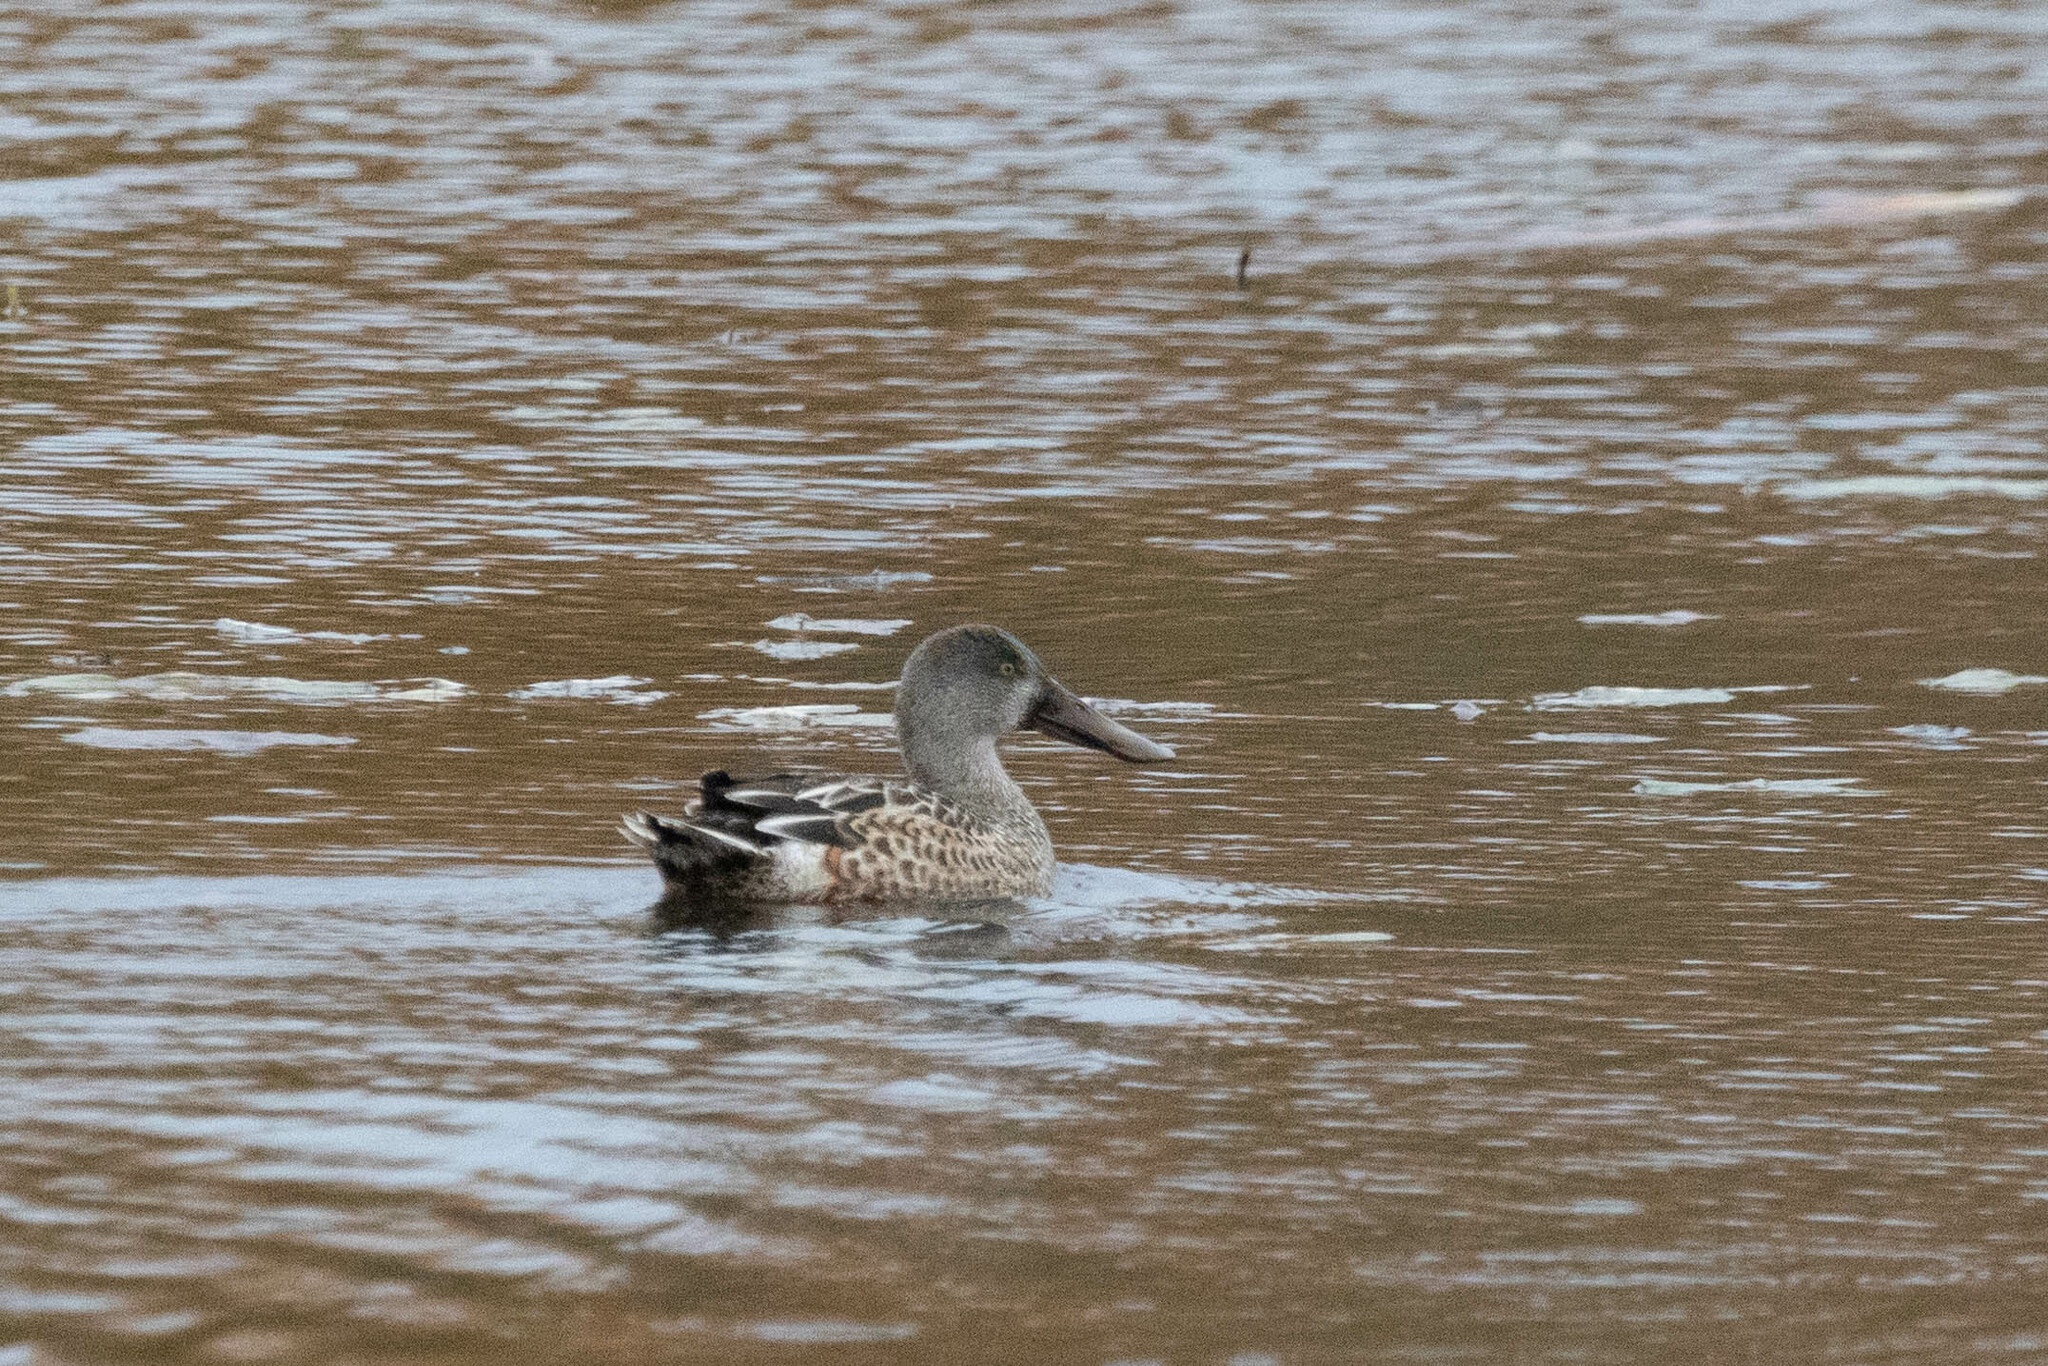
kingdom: Animalia
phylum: Chordata
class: Aves
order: Anseriformes
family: Anatidae
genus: Spatula
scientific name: Spatula clypeata
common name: Northern shoveler
